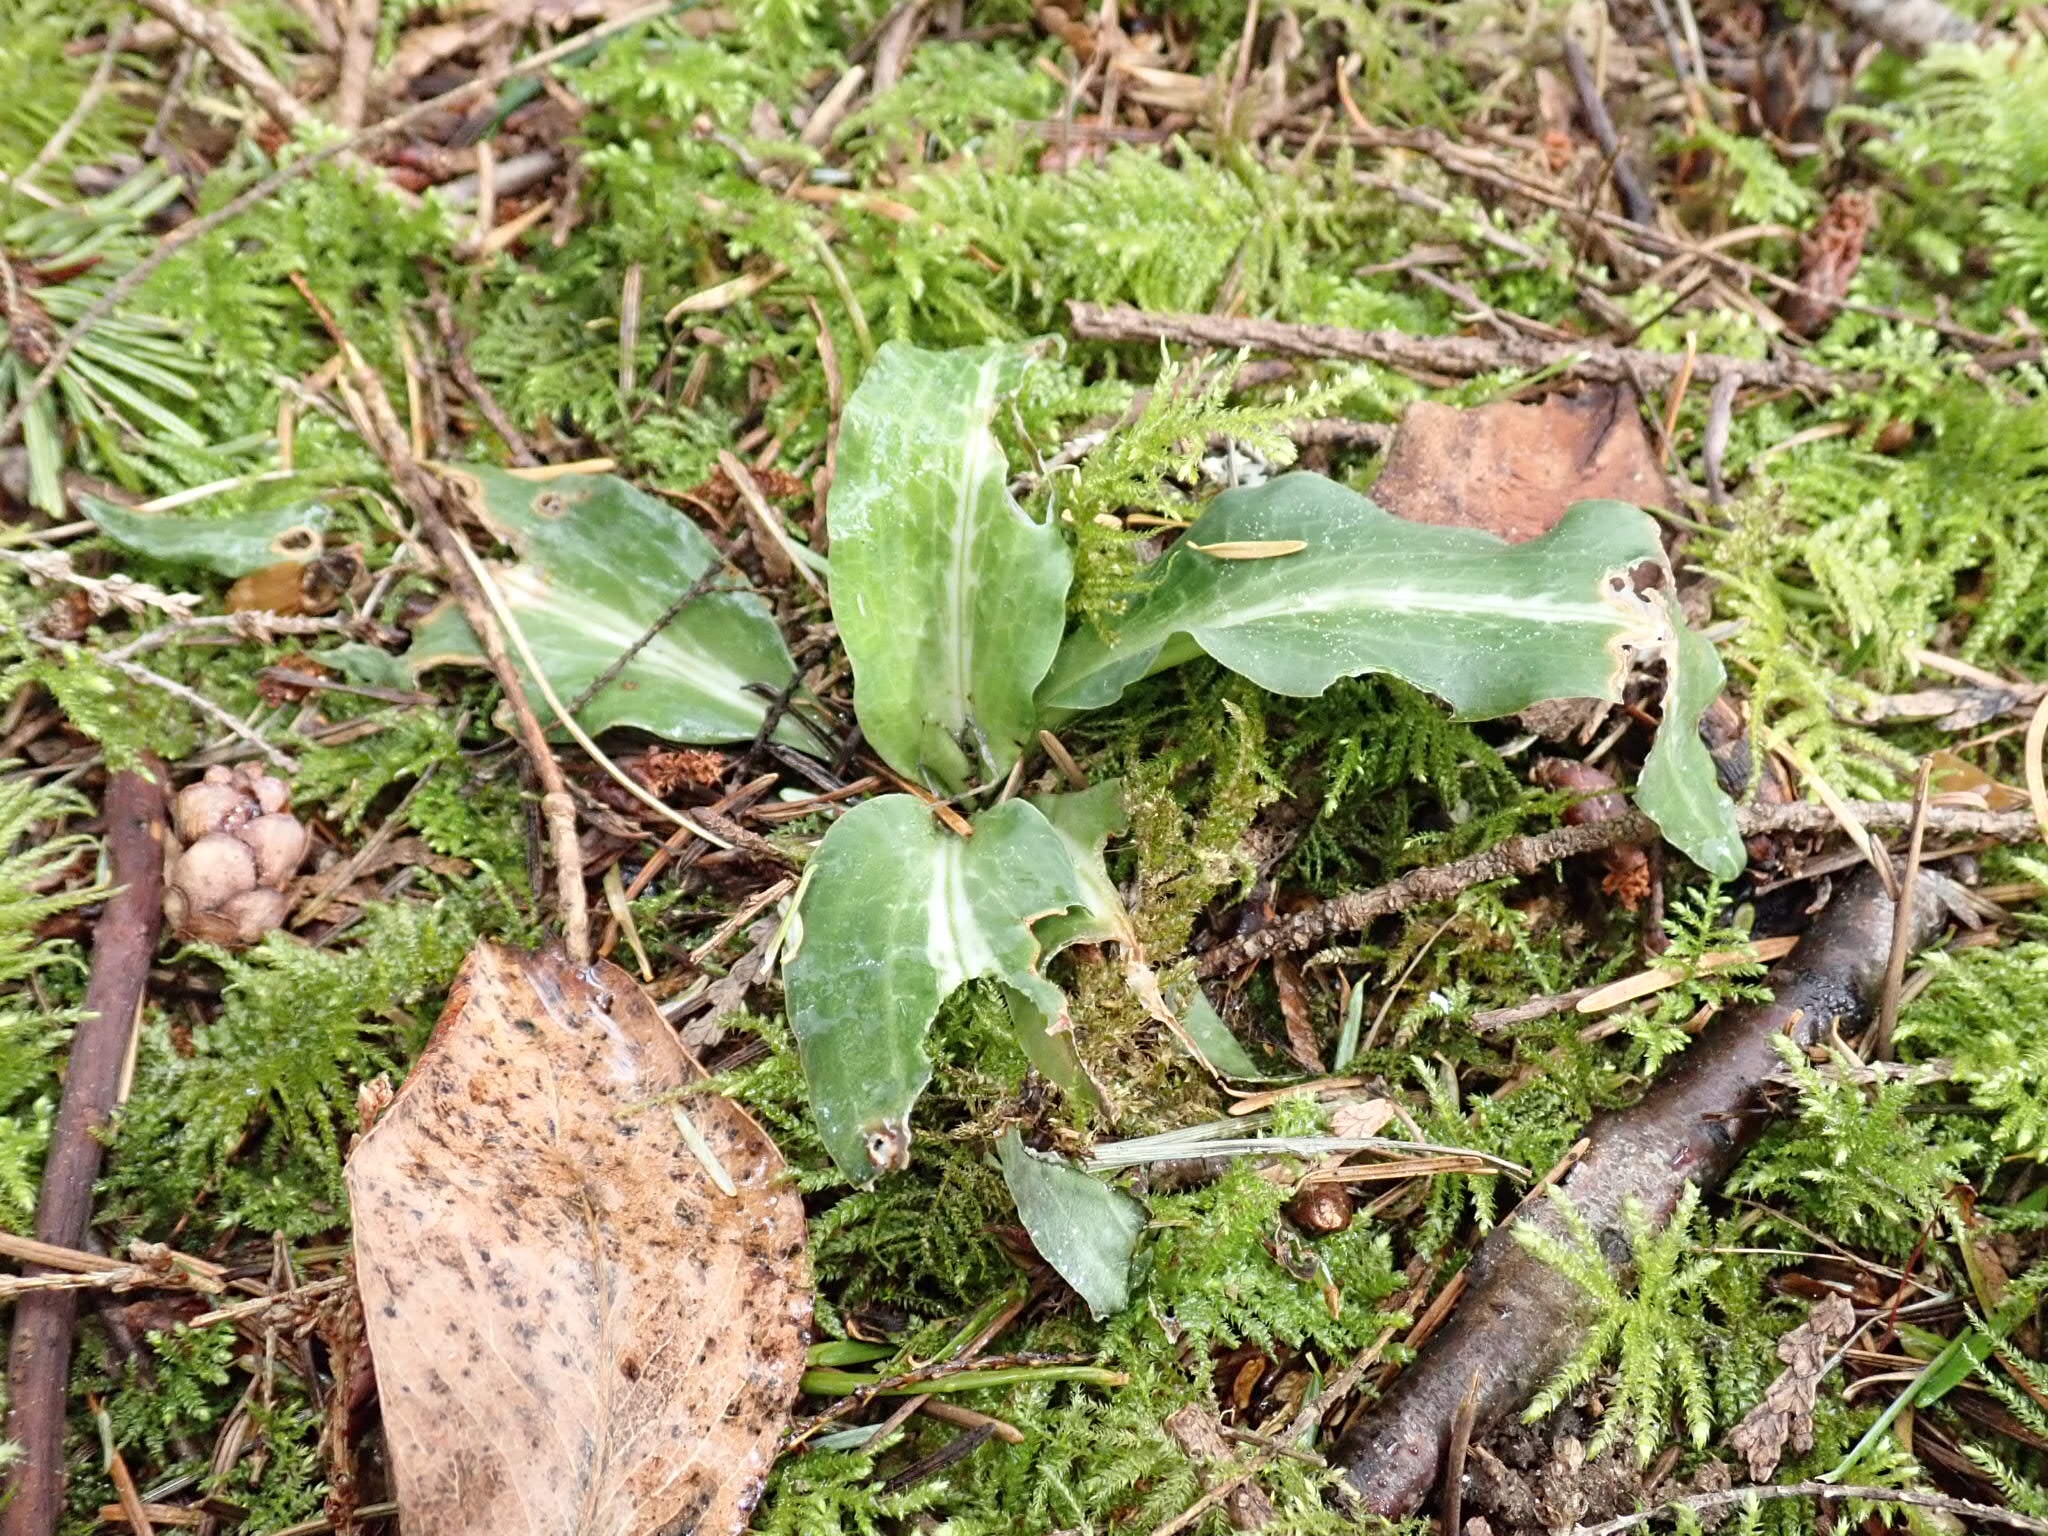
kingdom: Plantae
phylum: Tracheophyta
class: Liliopsida
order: Asparagales
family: Orchidaceae
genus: Goodyera
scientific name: Goodyera oblongifolia
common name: Giant rattlesnake-plantain
